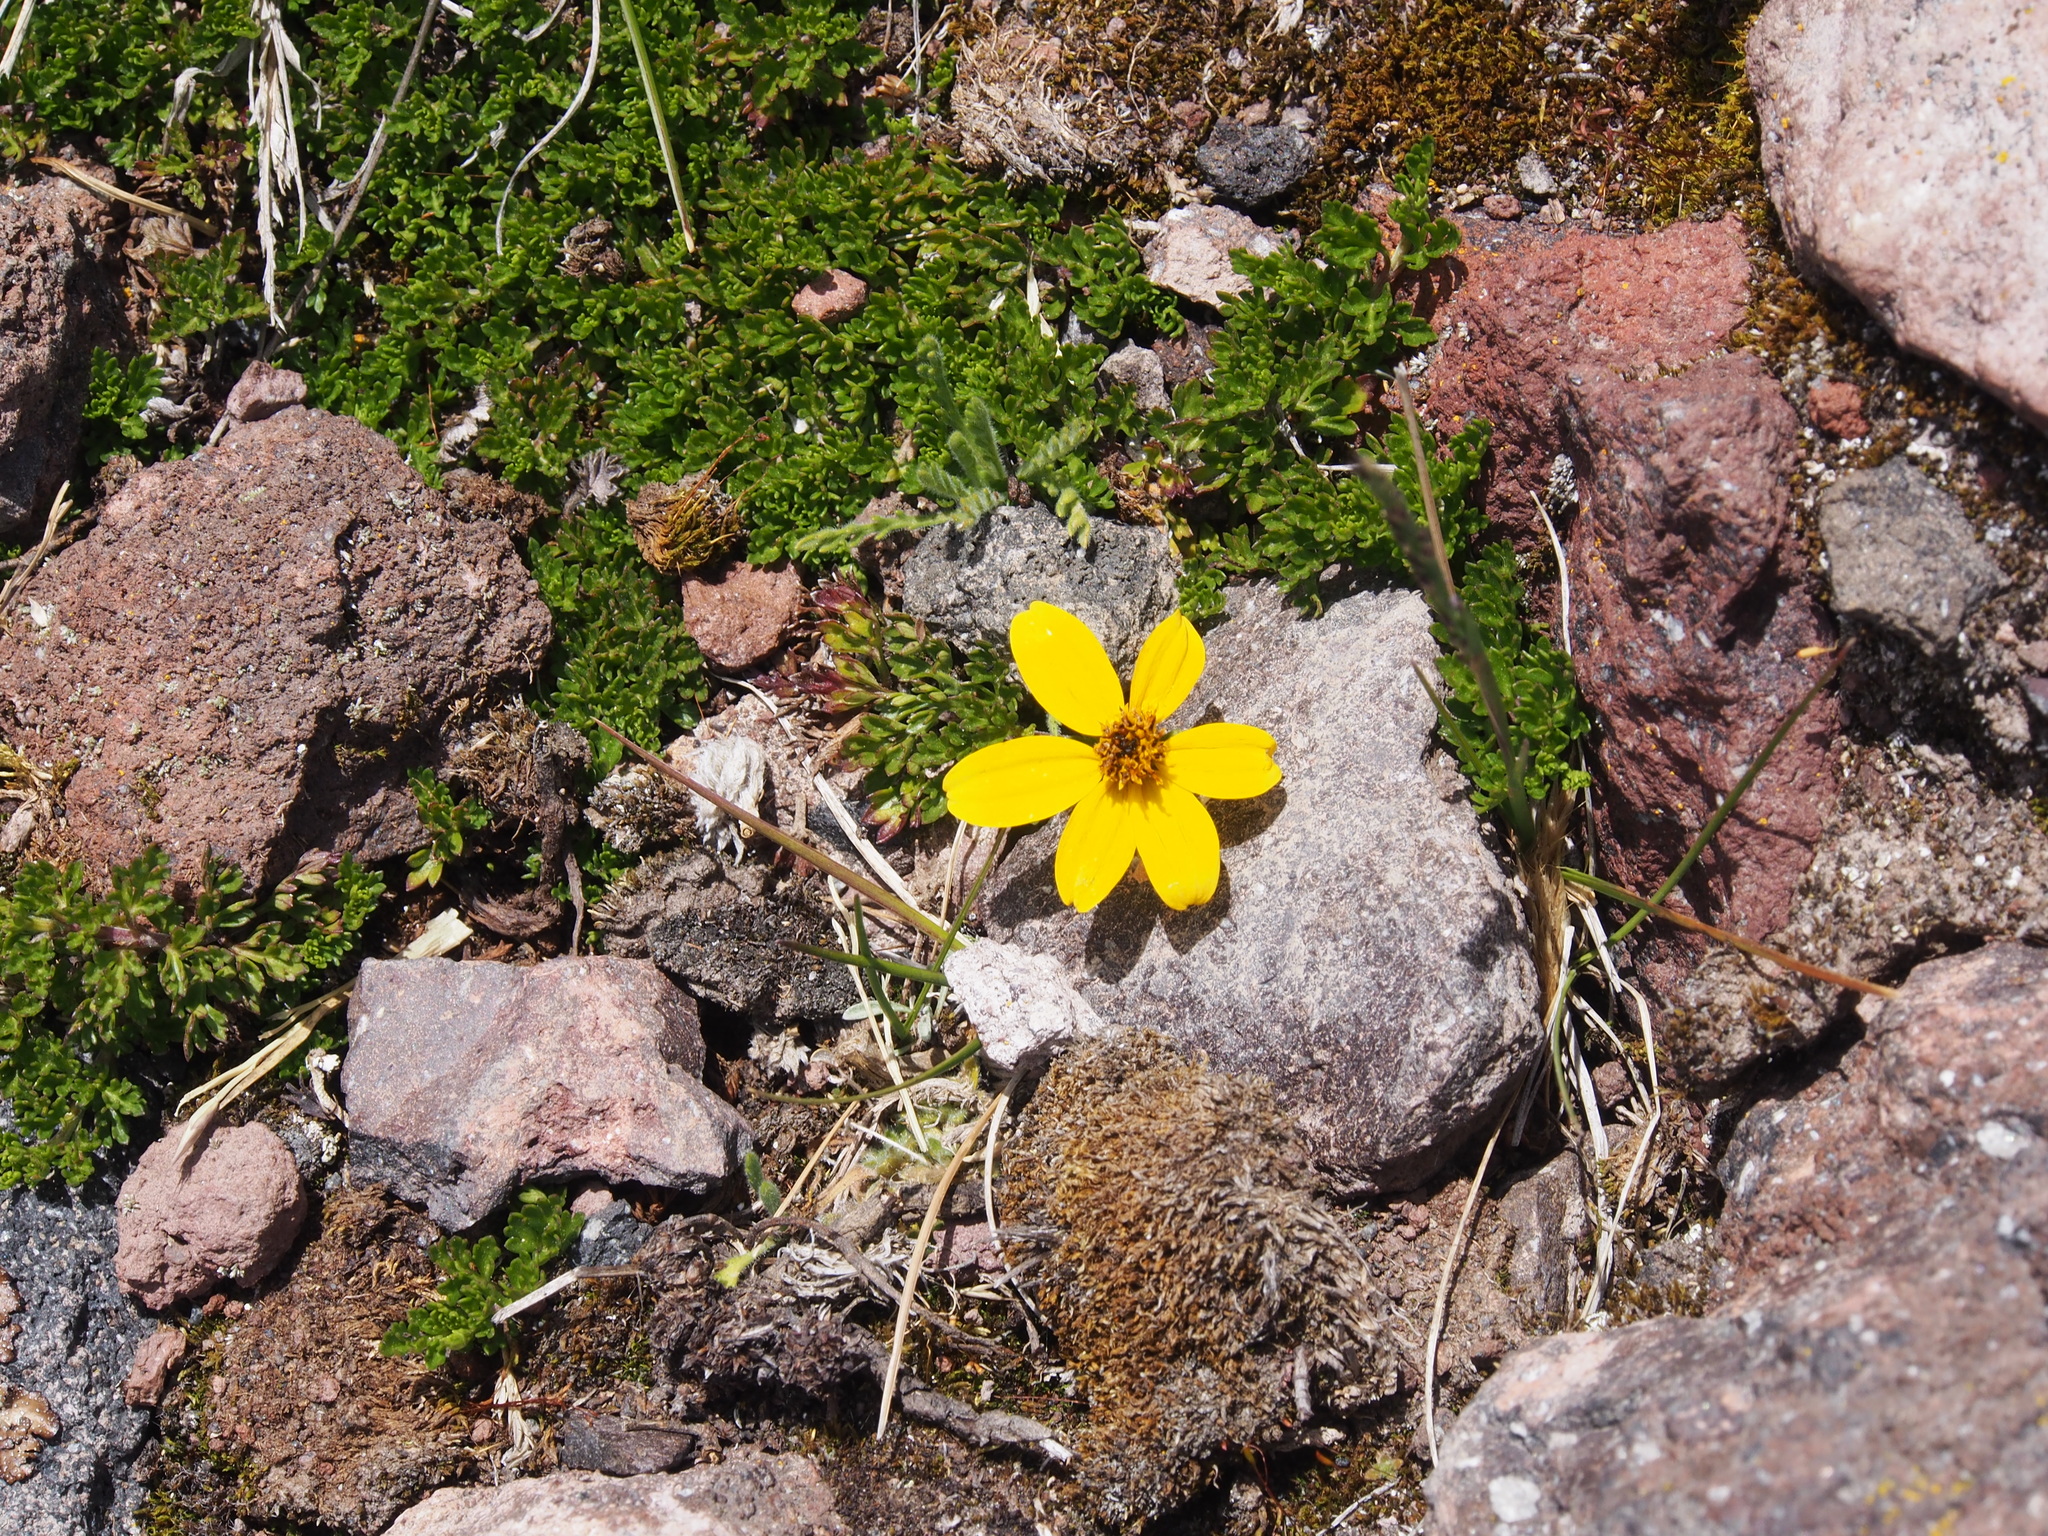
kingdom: Plantae
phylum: Tracheophyta
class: Magnoliopsida
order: Asterales
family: Asteraceae
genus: Bidens
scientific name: Bidens andicola
